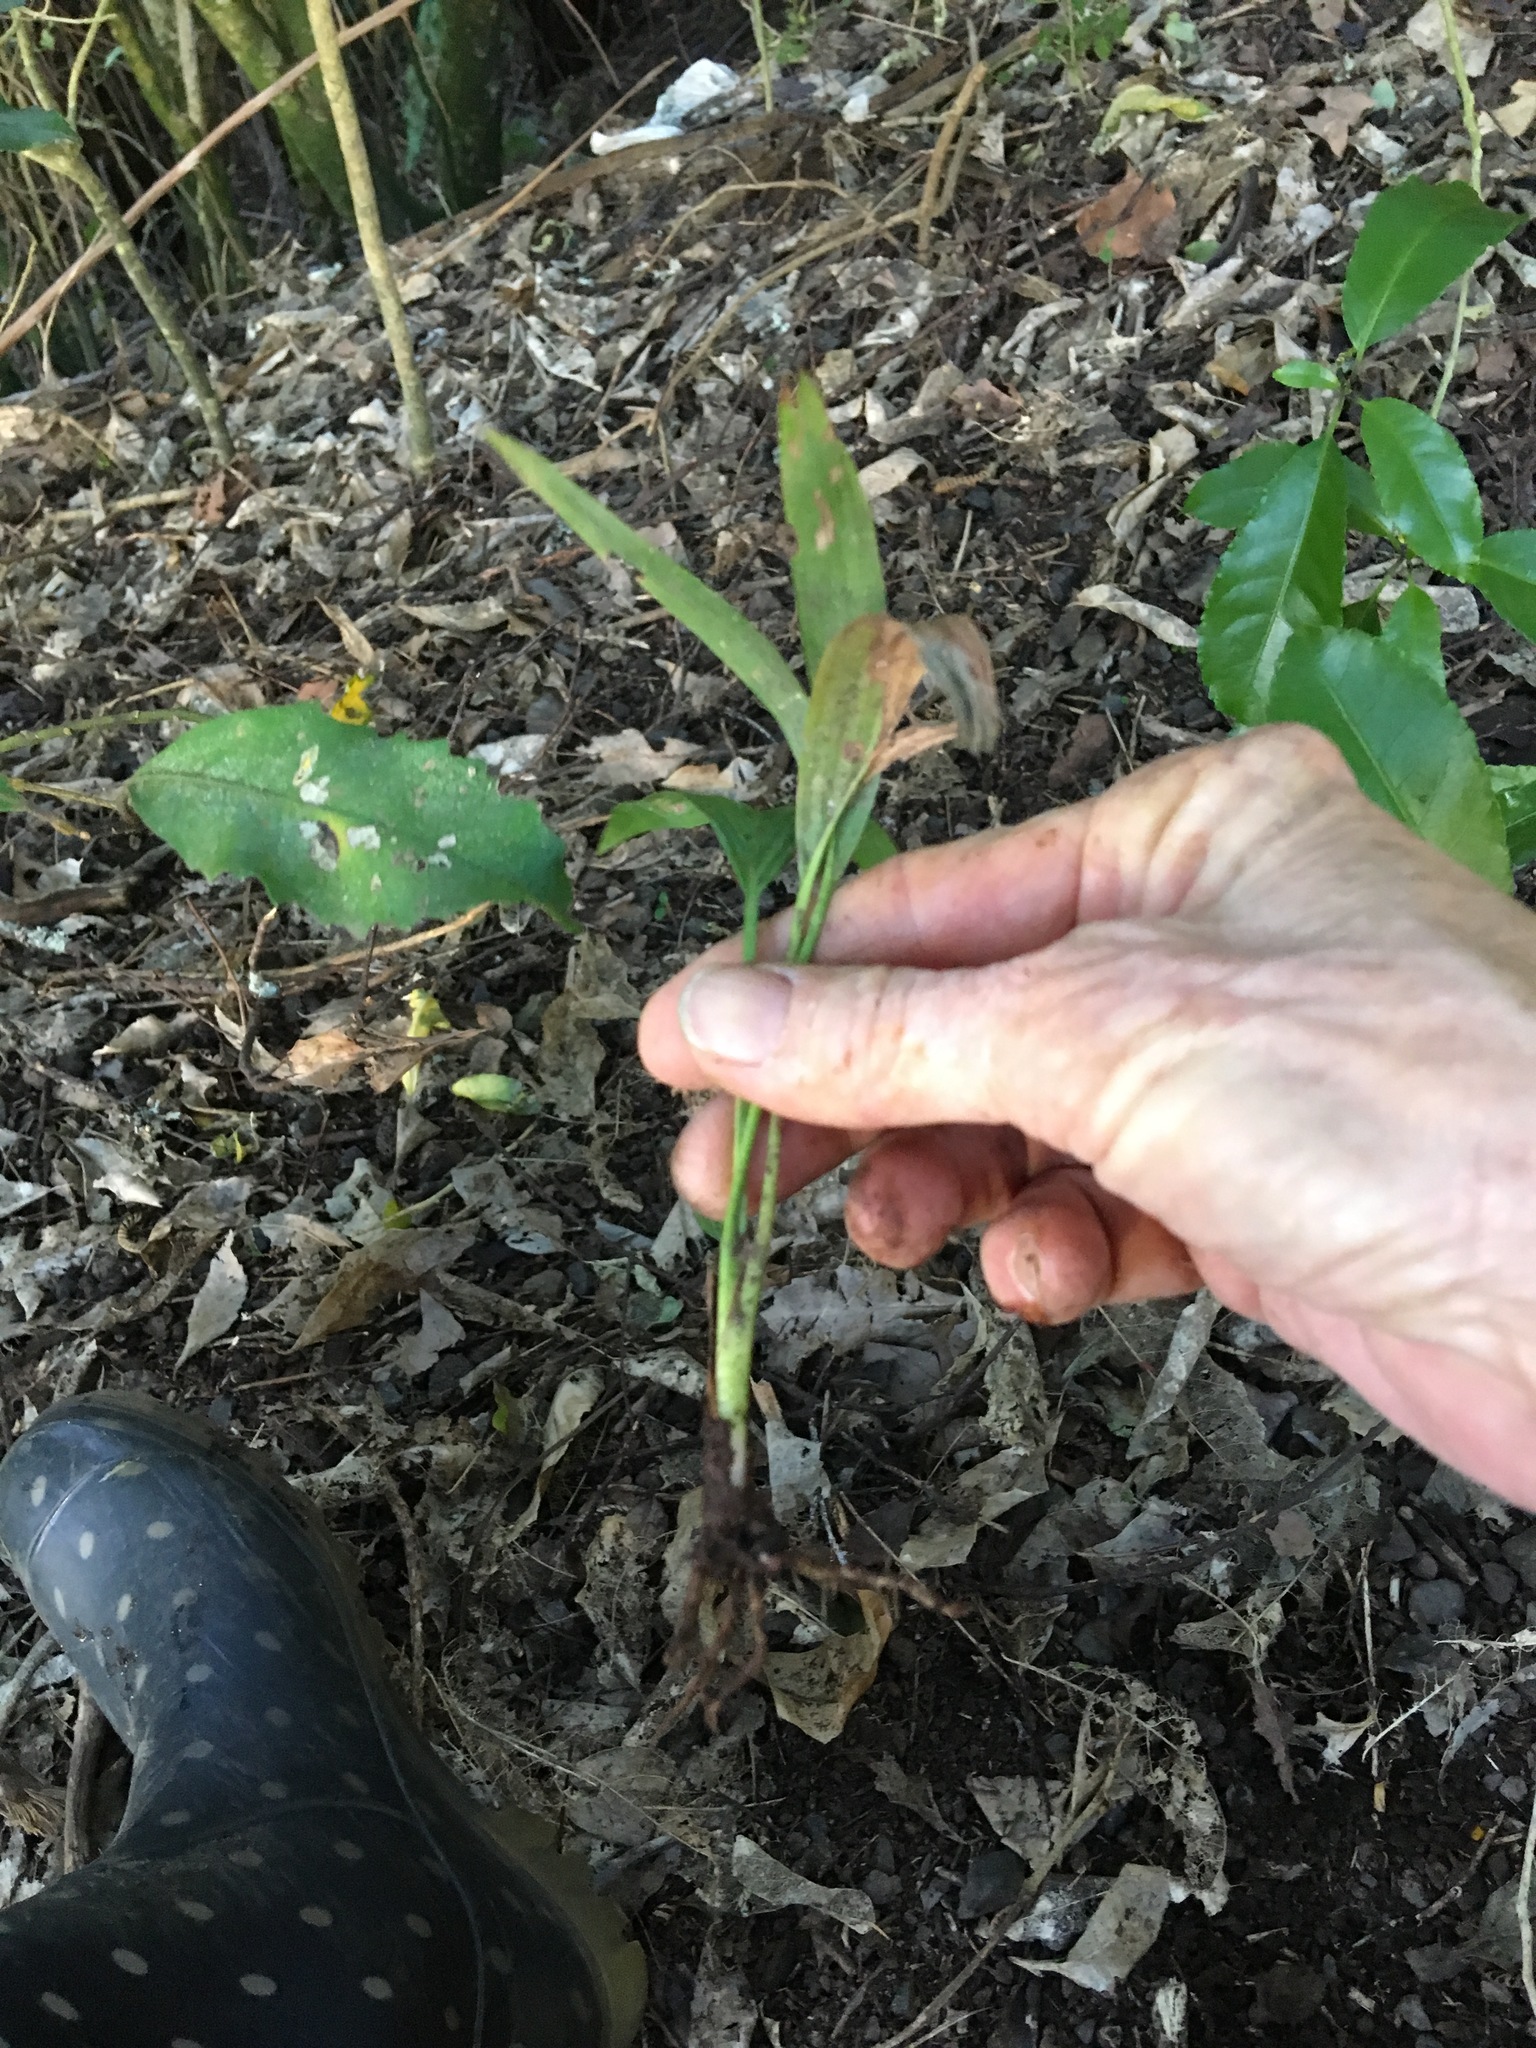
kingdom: Plantae
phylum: Tracheophyta
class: Liliopsida
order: Arecales
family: Arecaceae
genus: Archontophoenix
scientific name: Archontophoenix cunninghamiana
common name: Piccabeen bangalow palm
